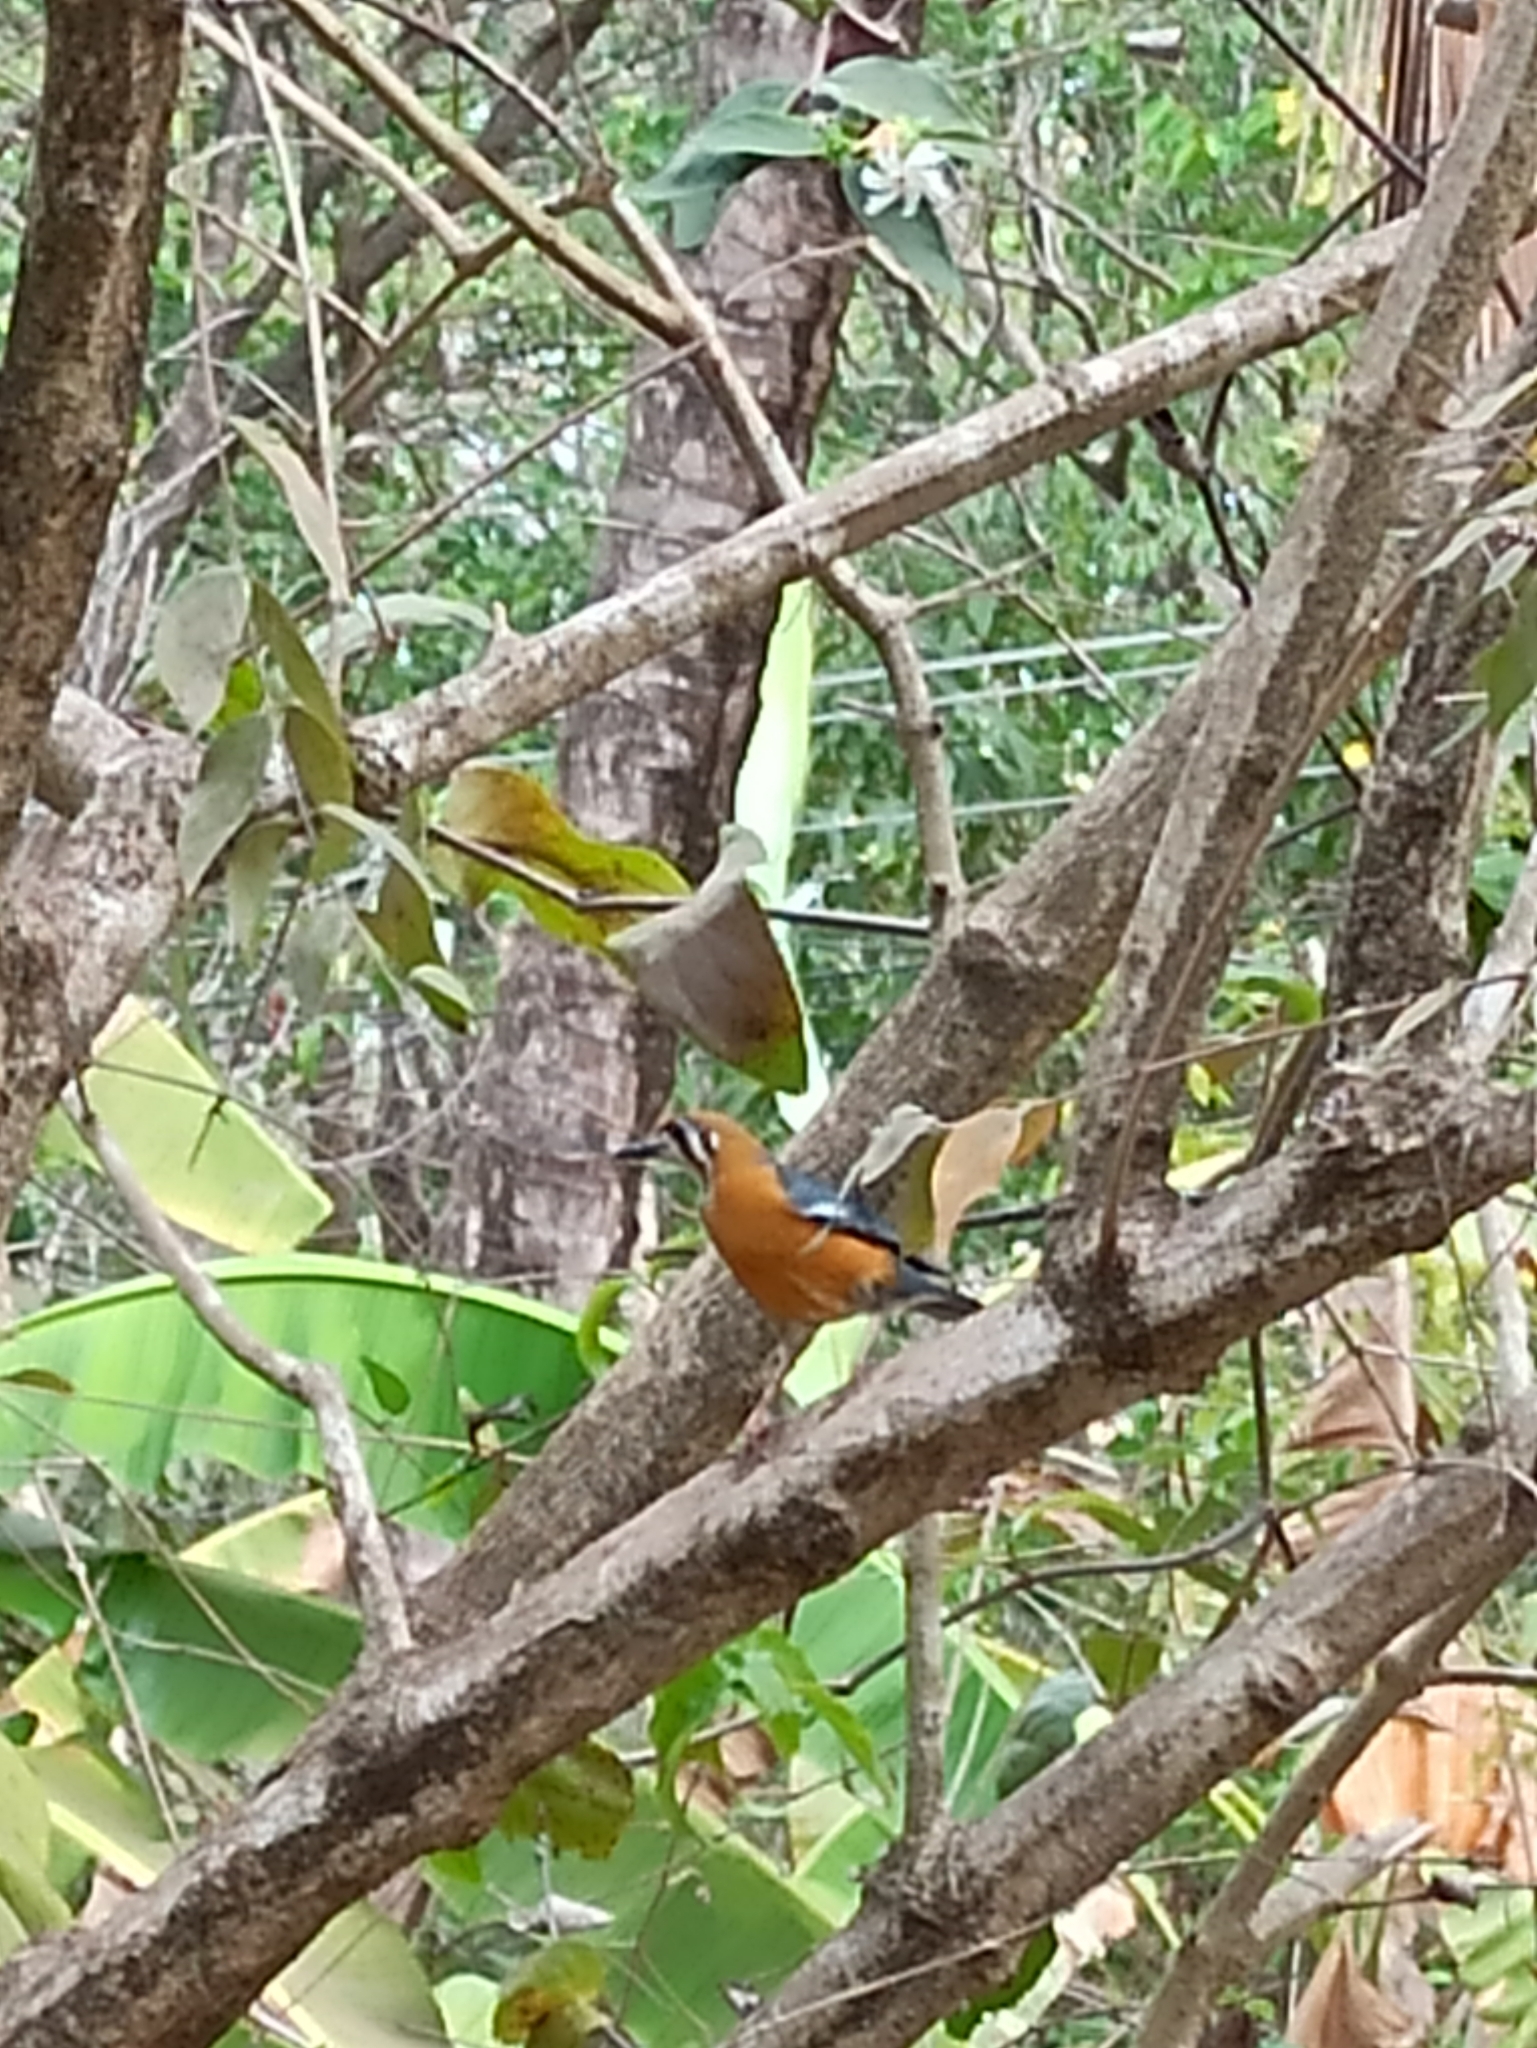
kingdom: Animalia
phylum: Chordata
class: Aves
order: Passeriformes
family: Turdidae
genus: Geokichla
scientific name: Geokichla citrina
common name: Orange-headed thrush
